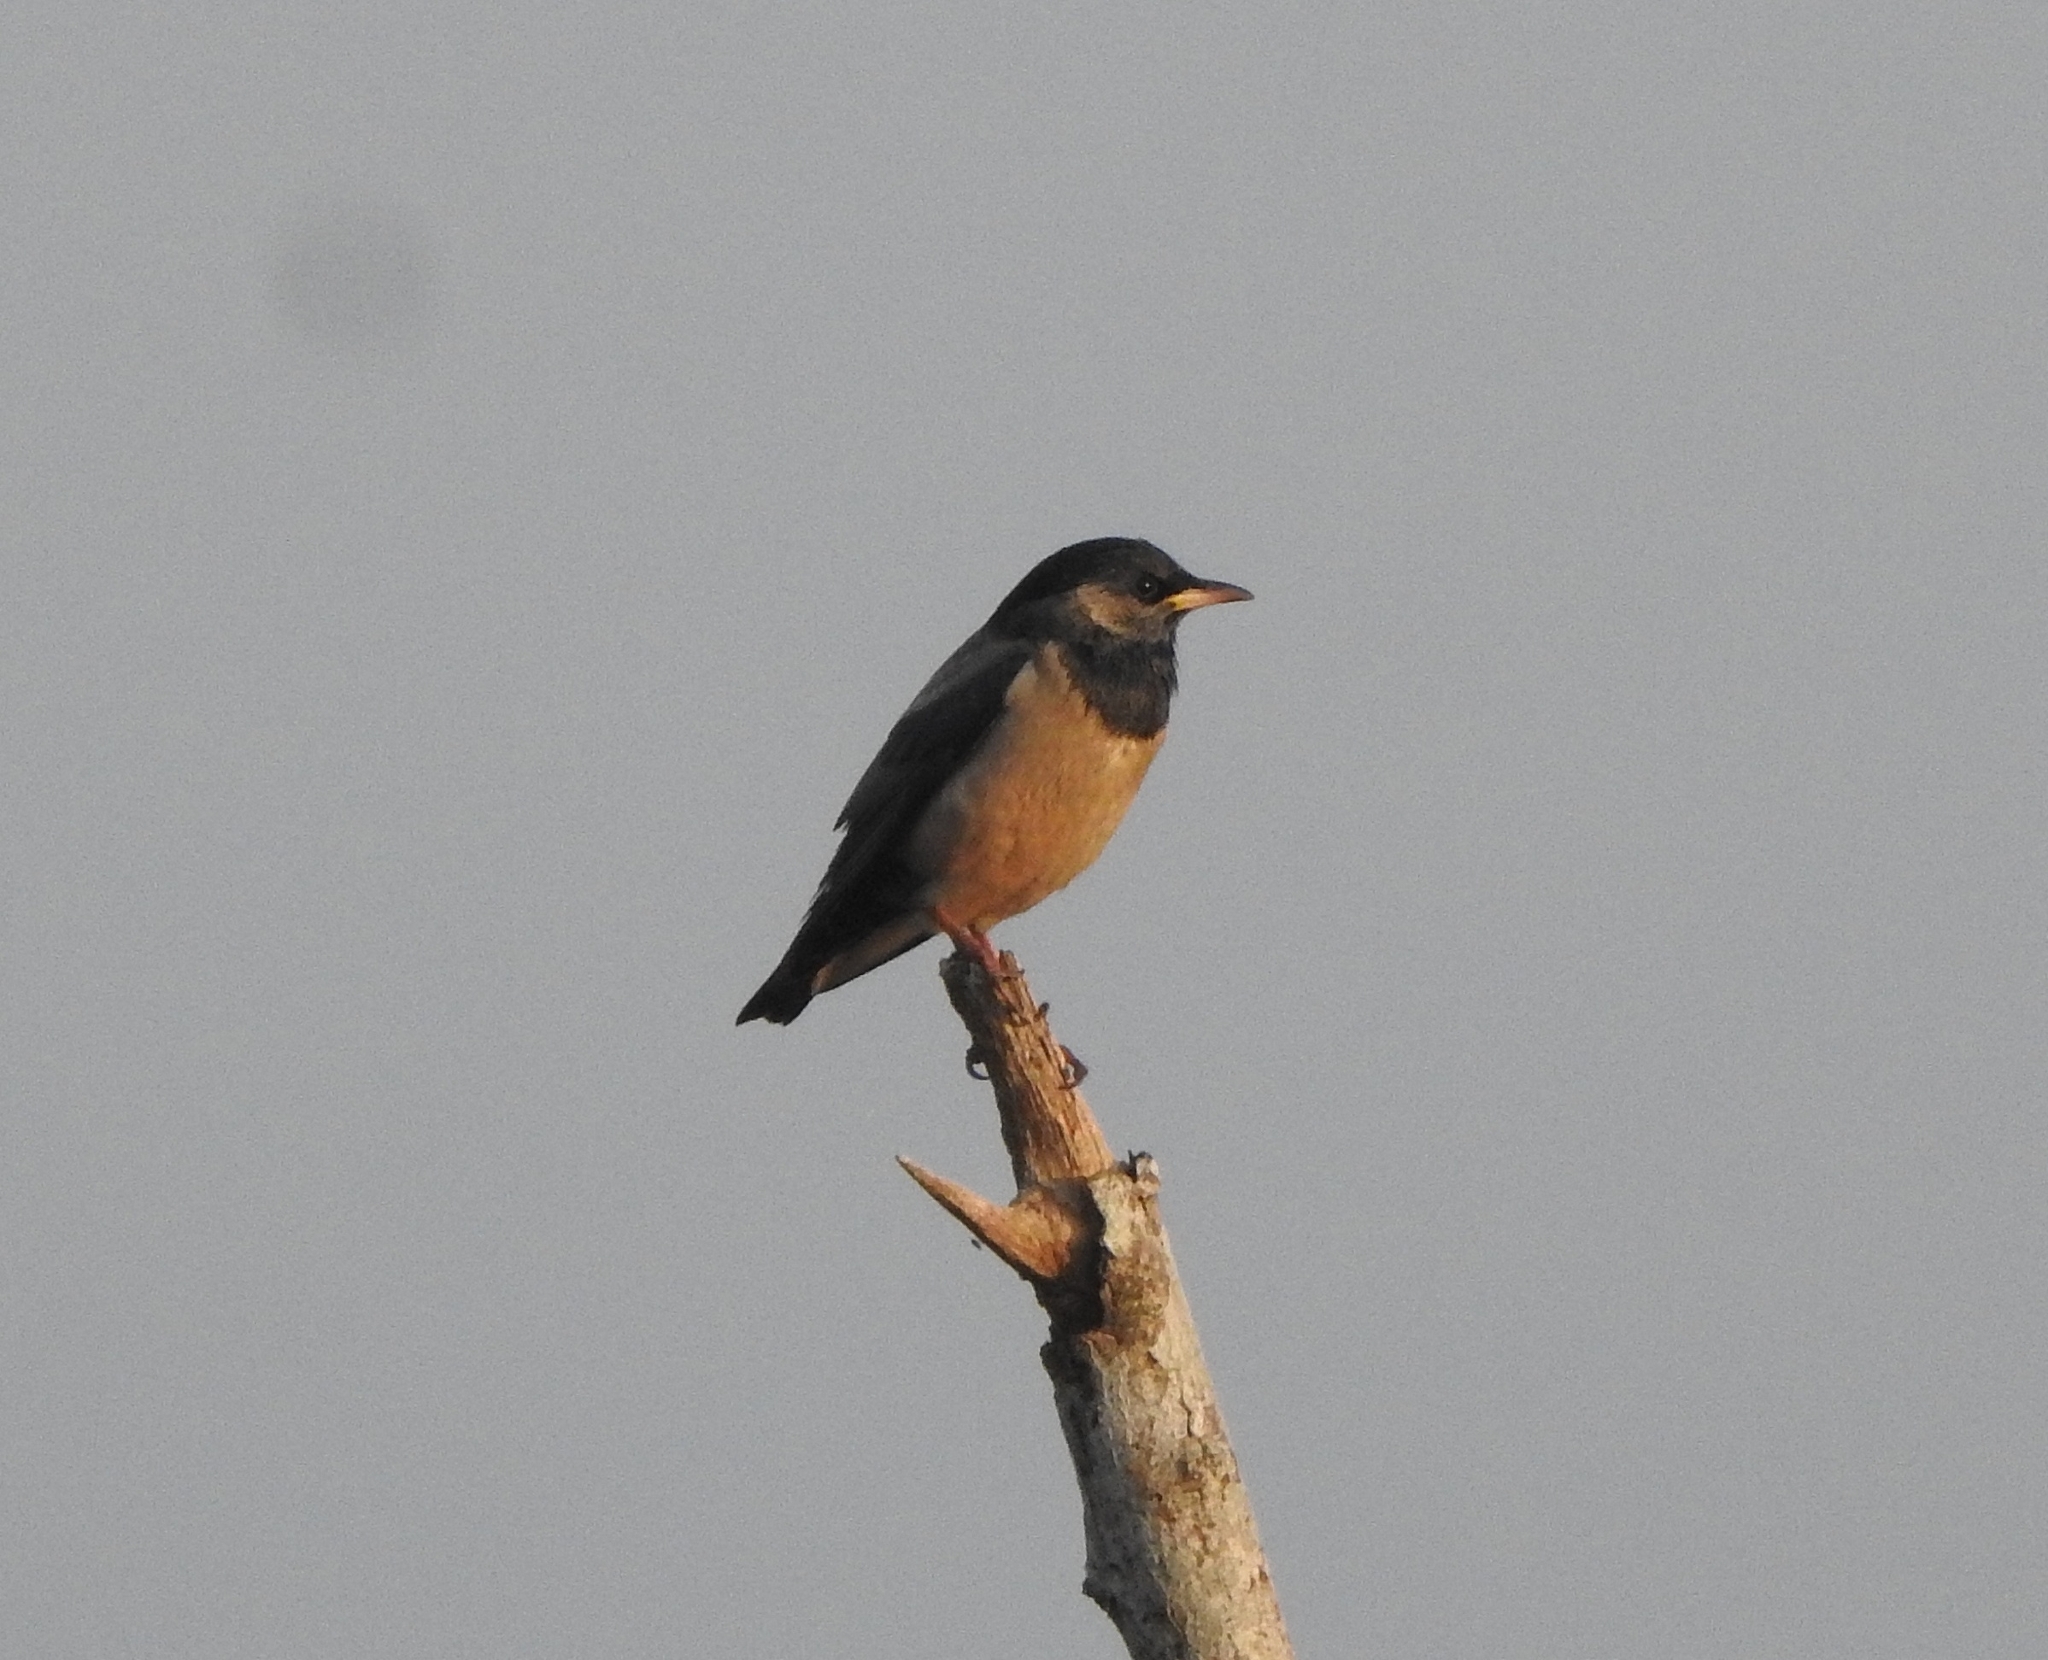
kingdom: Animalia
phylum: Chordata
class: Aves
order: Passeriformes
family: Sturnidae
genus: Pastor
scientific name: Pastor roseus
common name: Rosy starling
